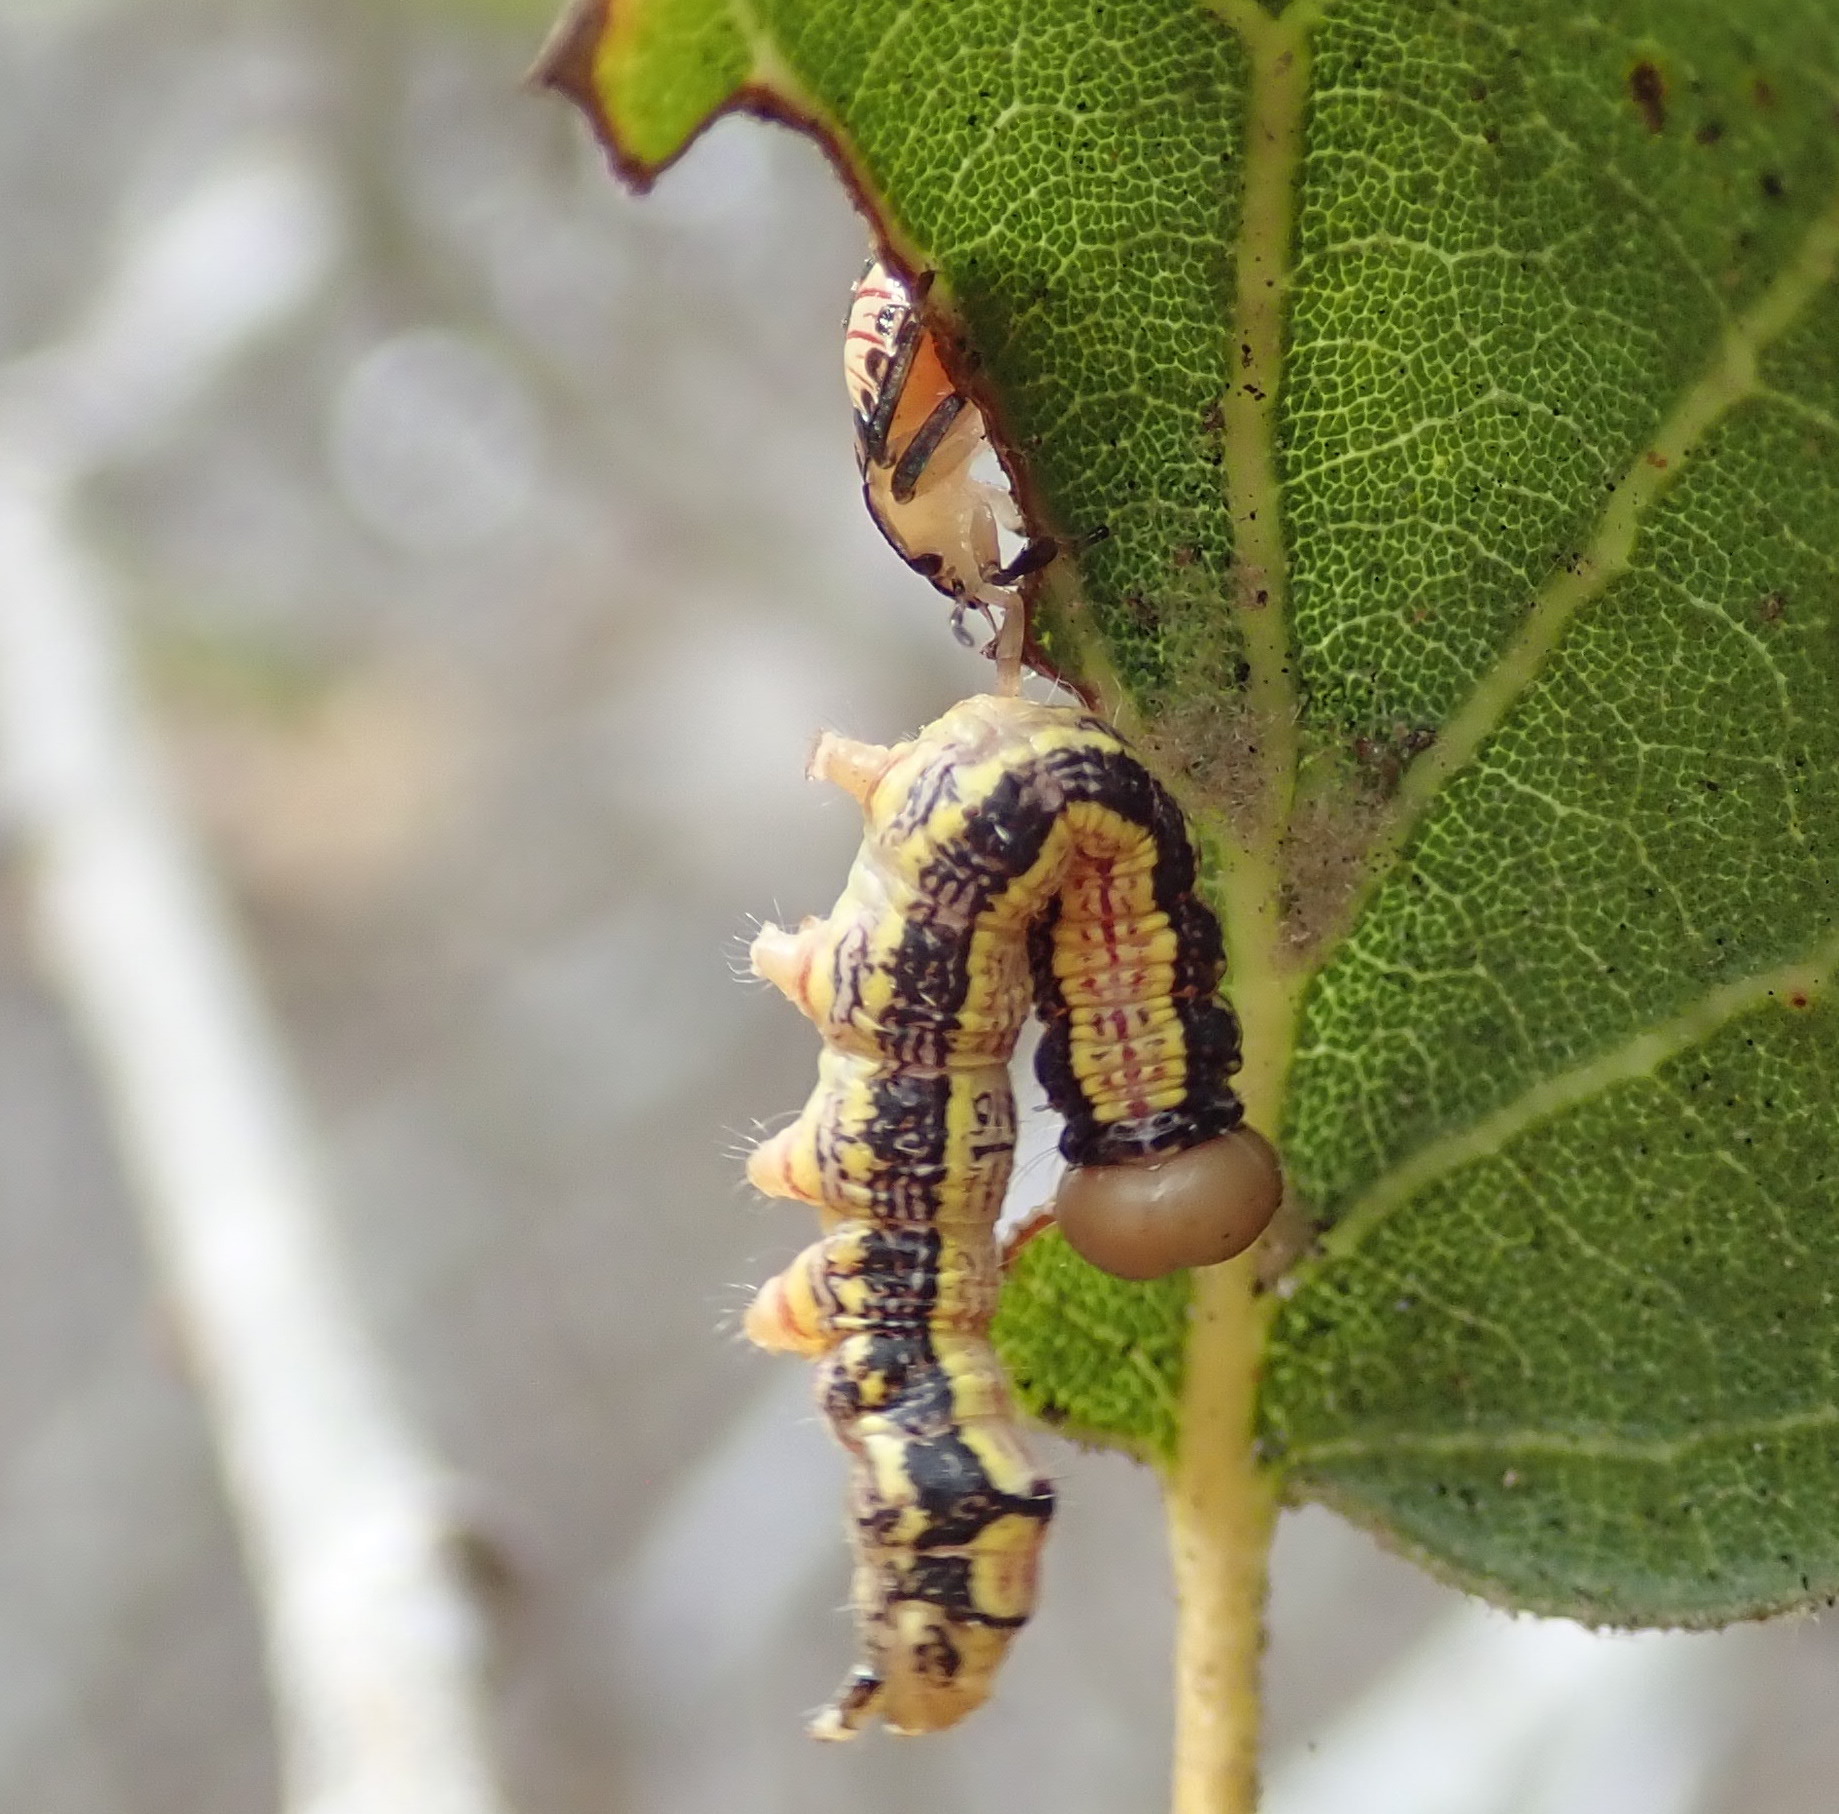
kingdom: Animalia
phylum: Arthropoda
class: Insecta
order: Hemiptera
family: Pentatomidae
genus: Podisus
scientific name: Podisus maculiventris
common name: Spined soldier bug
